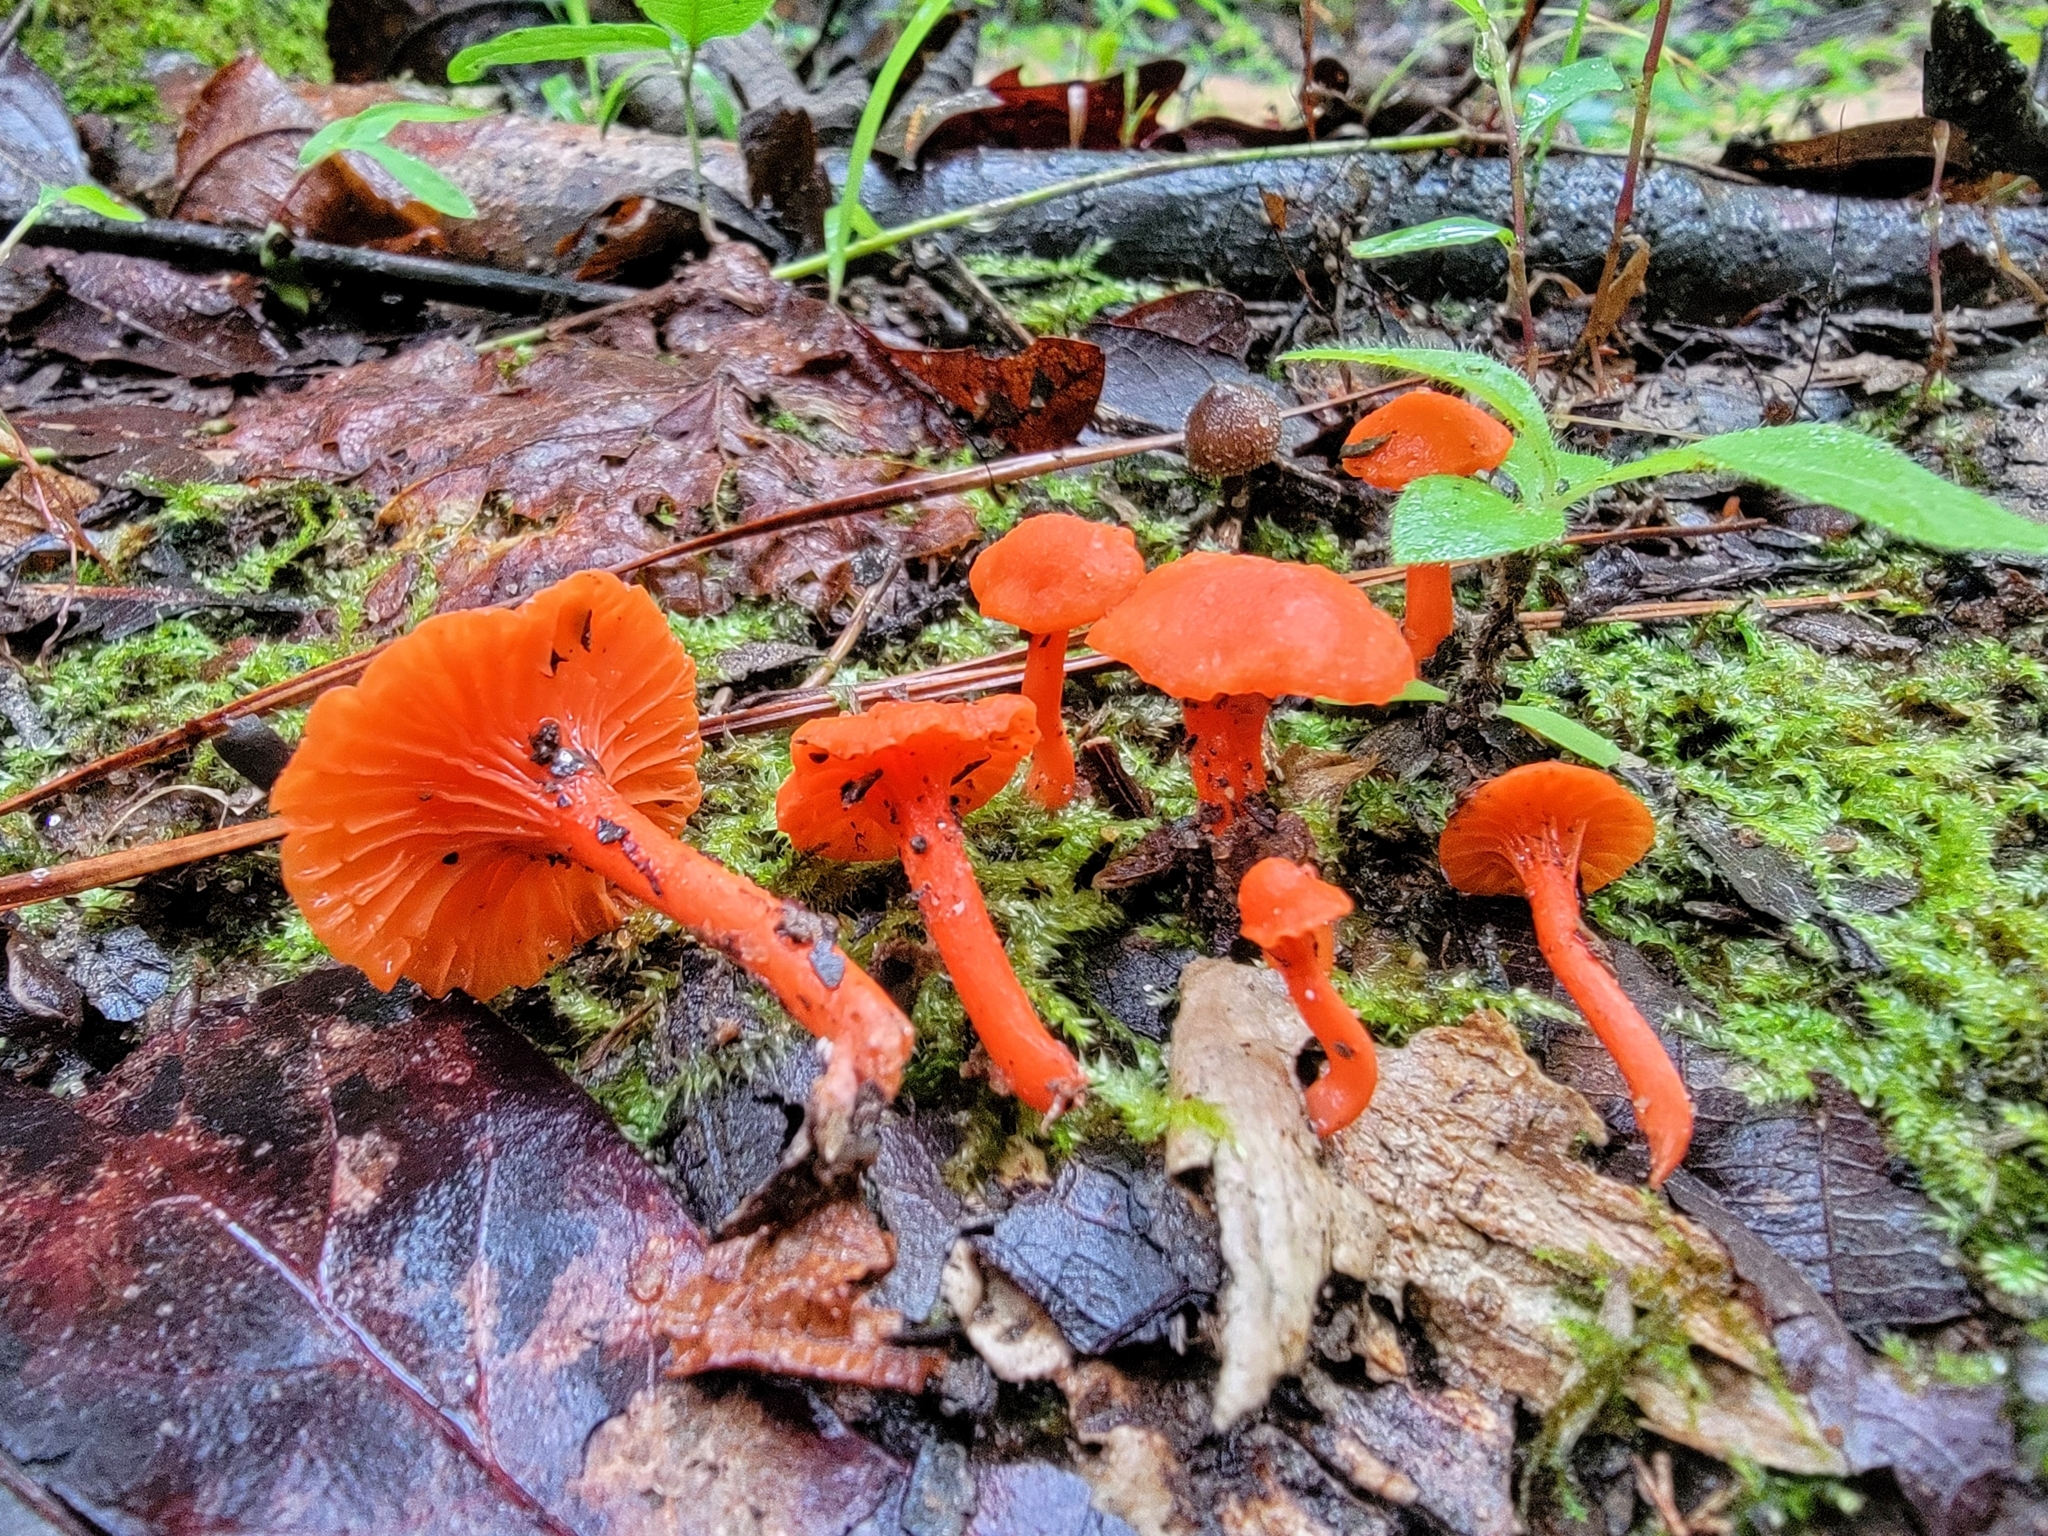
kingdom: Fungi
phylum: Basidiomycota
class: Agaricomycetes
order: Cantharellales
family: Hydnaceae
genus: Cantharellus
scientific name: Cantharellus cinnabarinus
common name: Cinnabar chanterelle
